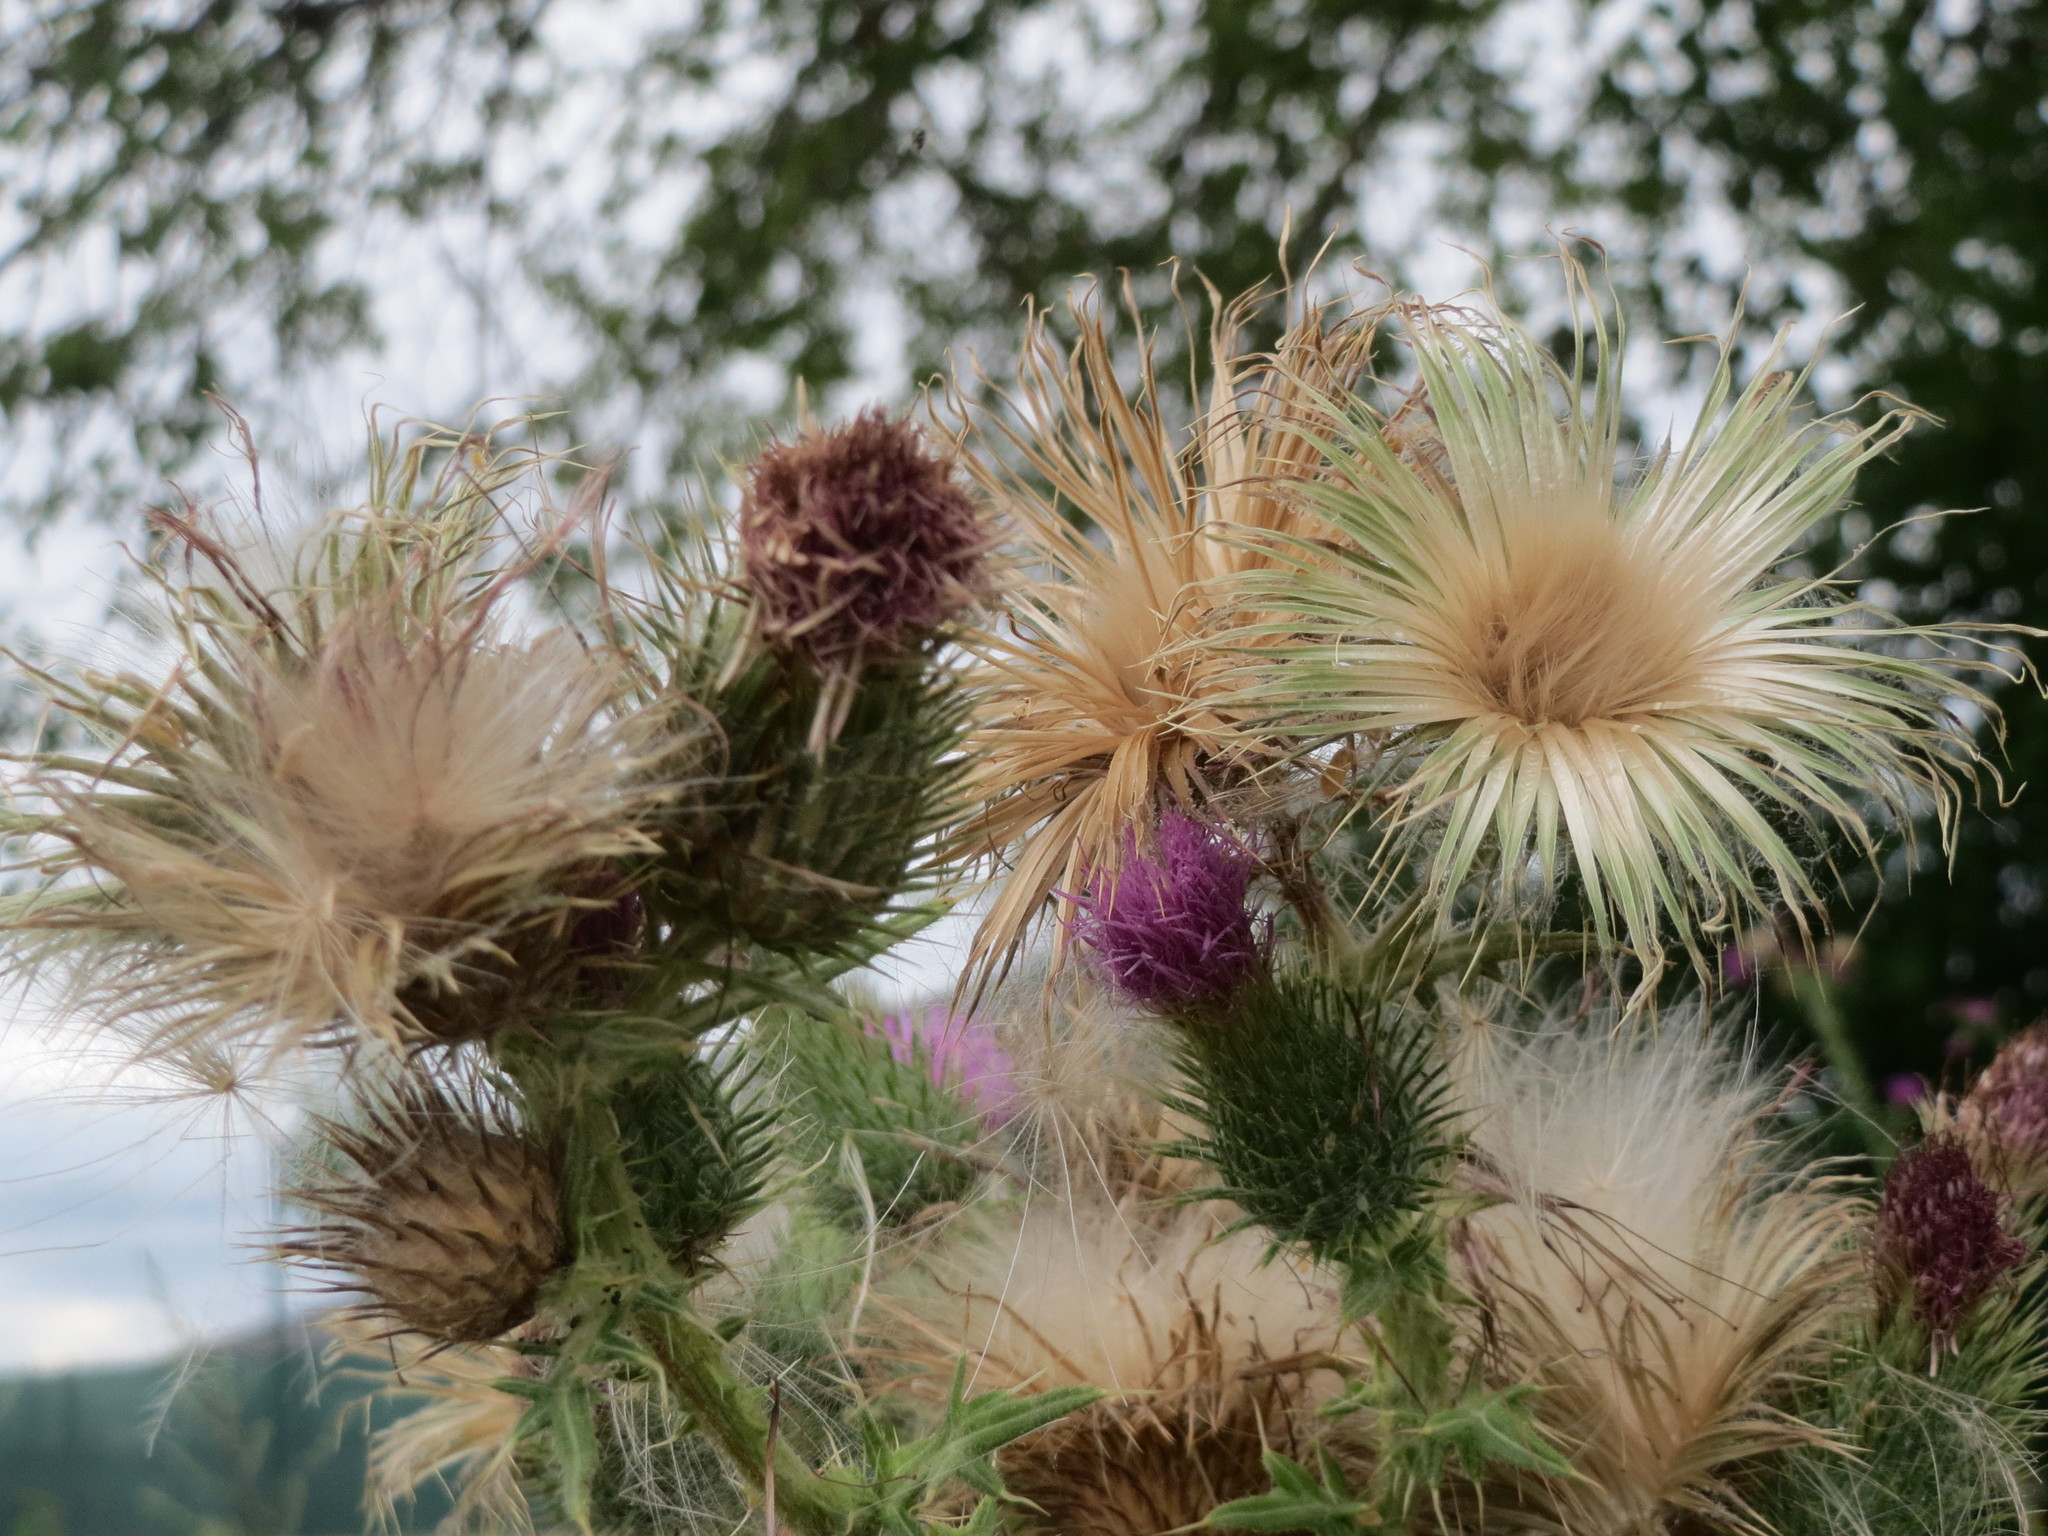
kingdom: Plantae
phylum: Tracheophyta
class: Magnoliopsida
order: Asterales
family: Asteraceae
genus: Cirsium
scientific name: Cirsium vulgare
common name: Bull thistle
